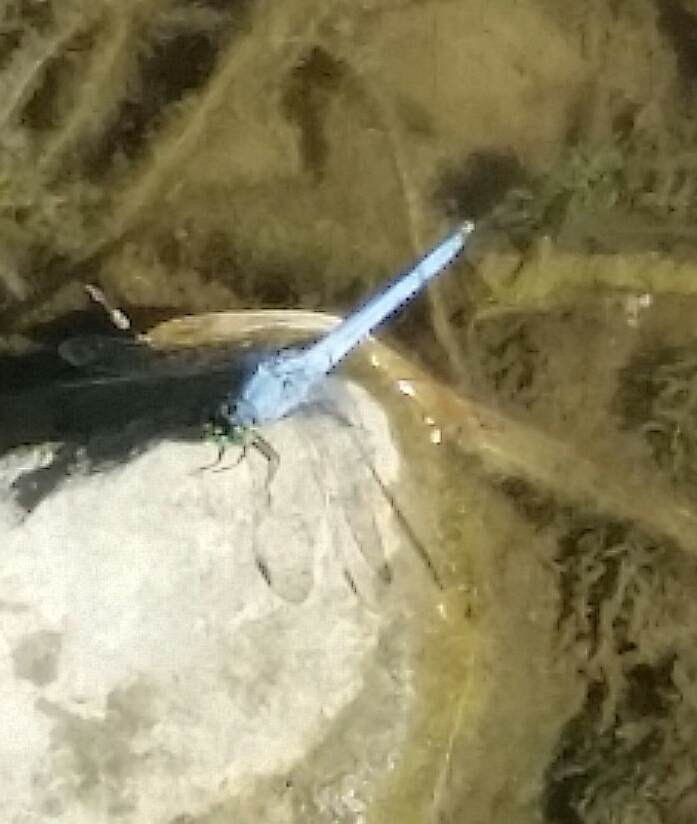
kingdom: Animalia
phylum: Arthropoda
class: Insecta
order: Odonata
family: Libellulidae
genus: Erythemis
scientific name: Erythemis simplicicollis
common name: Eastern pondhawk
